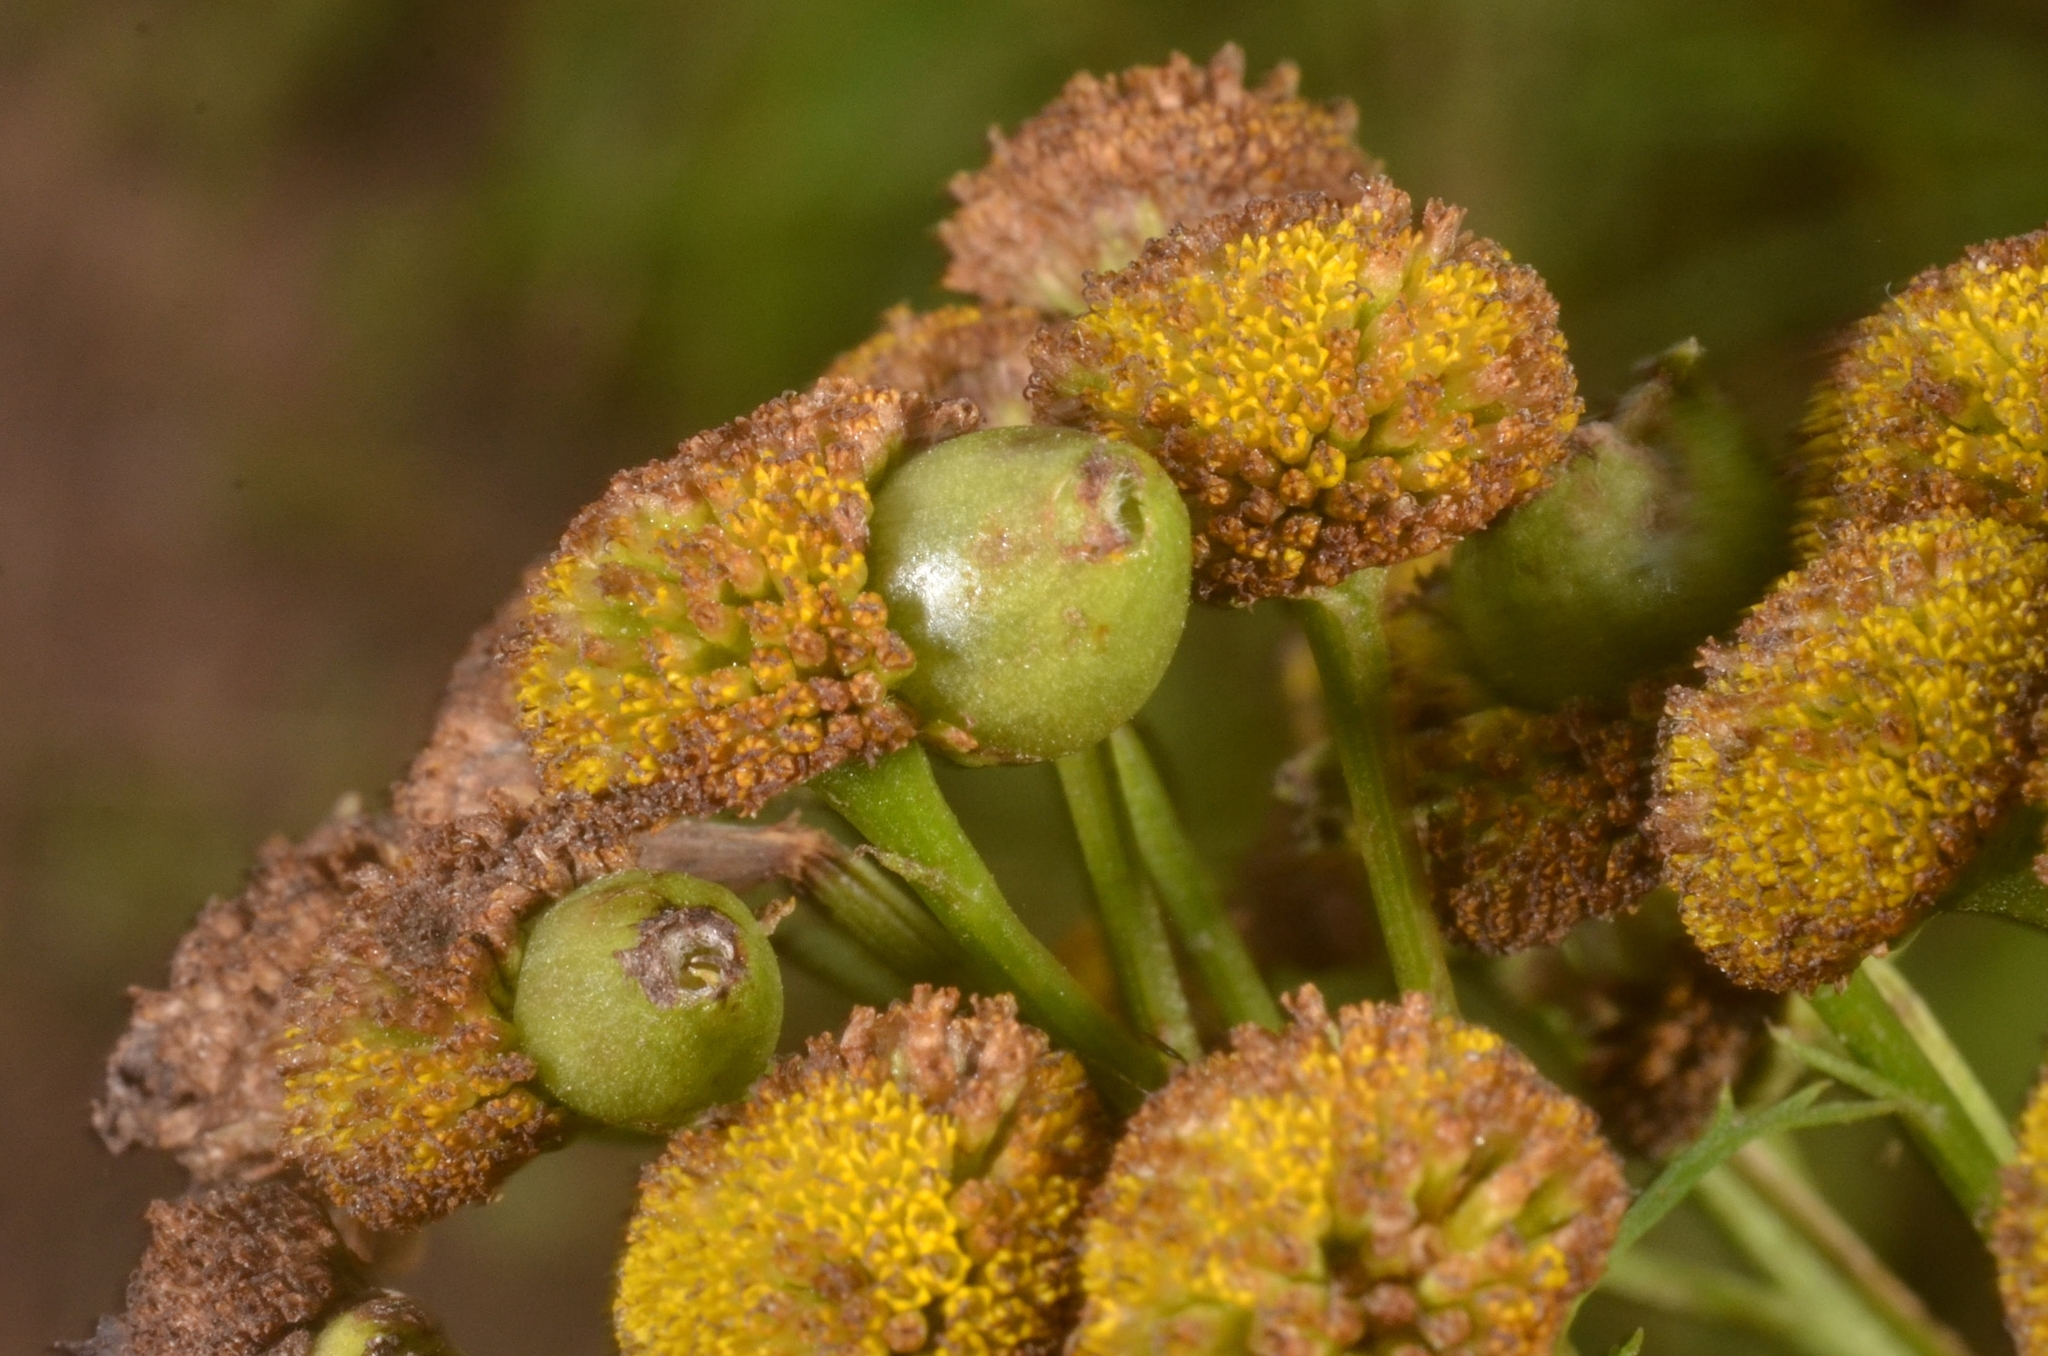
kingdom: Animalia
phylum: Arthropoda
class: Insecta
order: Diptera
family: Cecidomyiidae
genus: Rhopalomyia
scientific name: Rhopalomyia tanaceticolus
